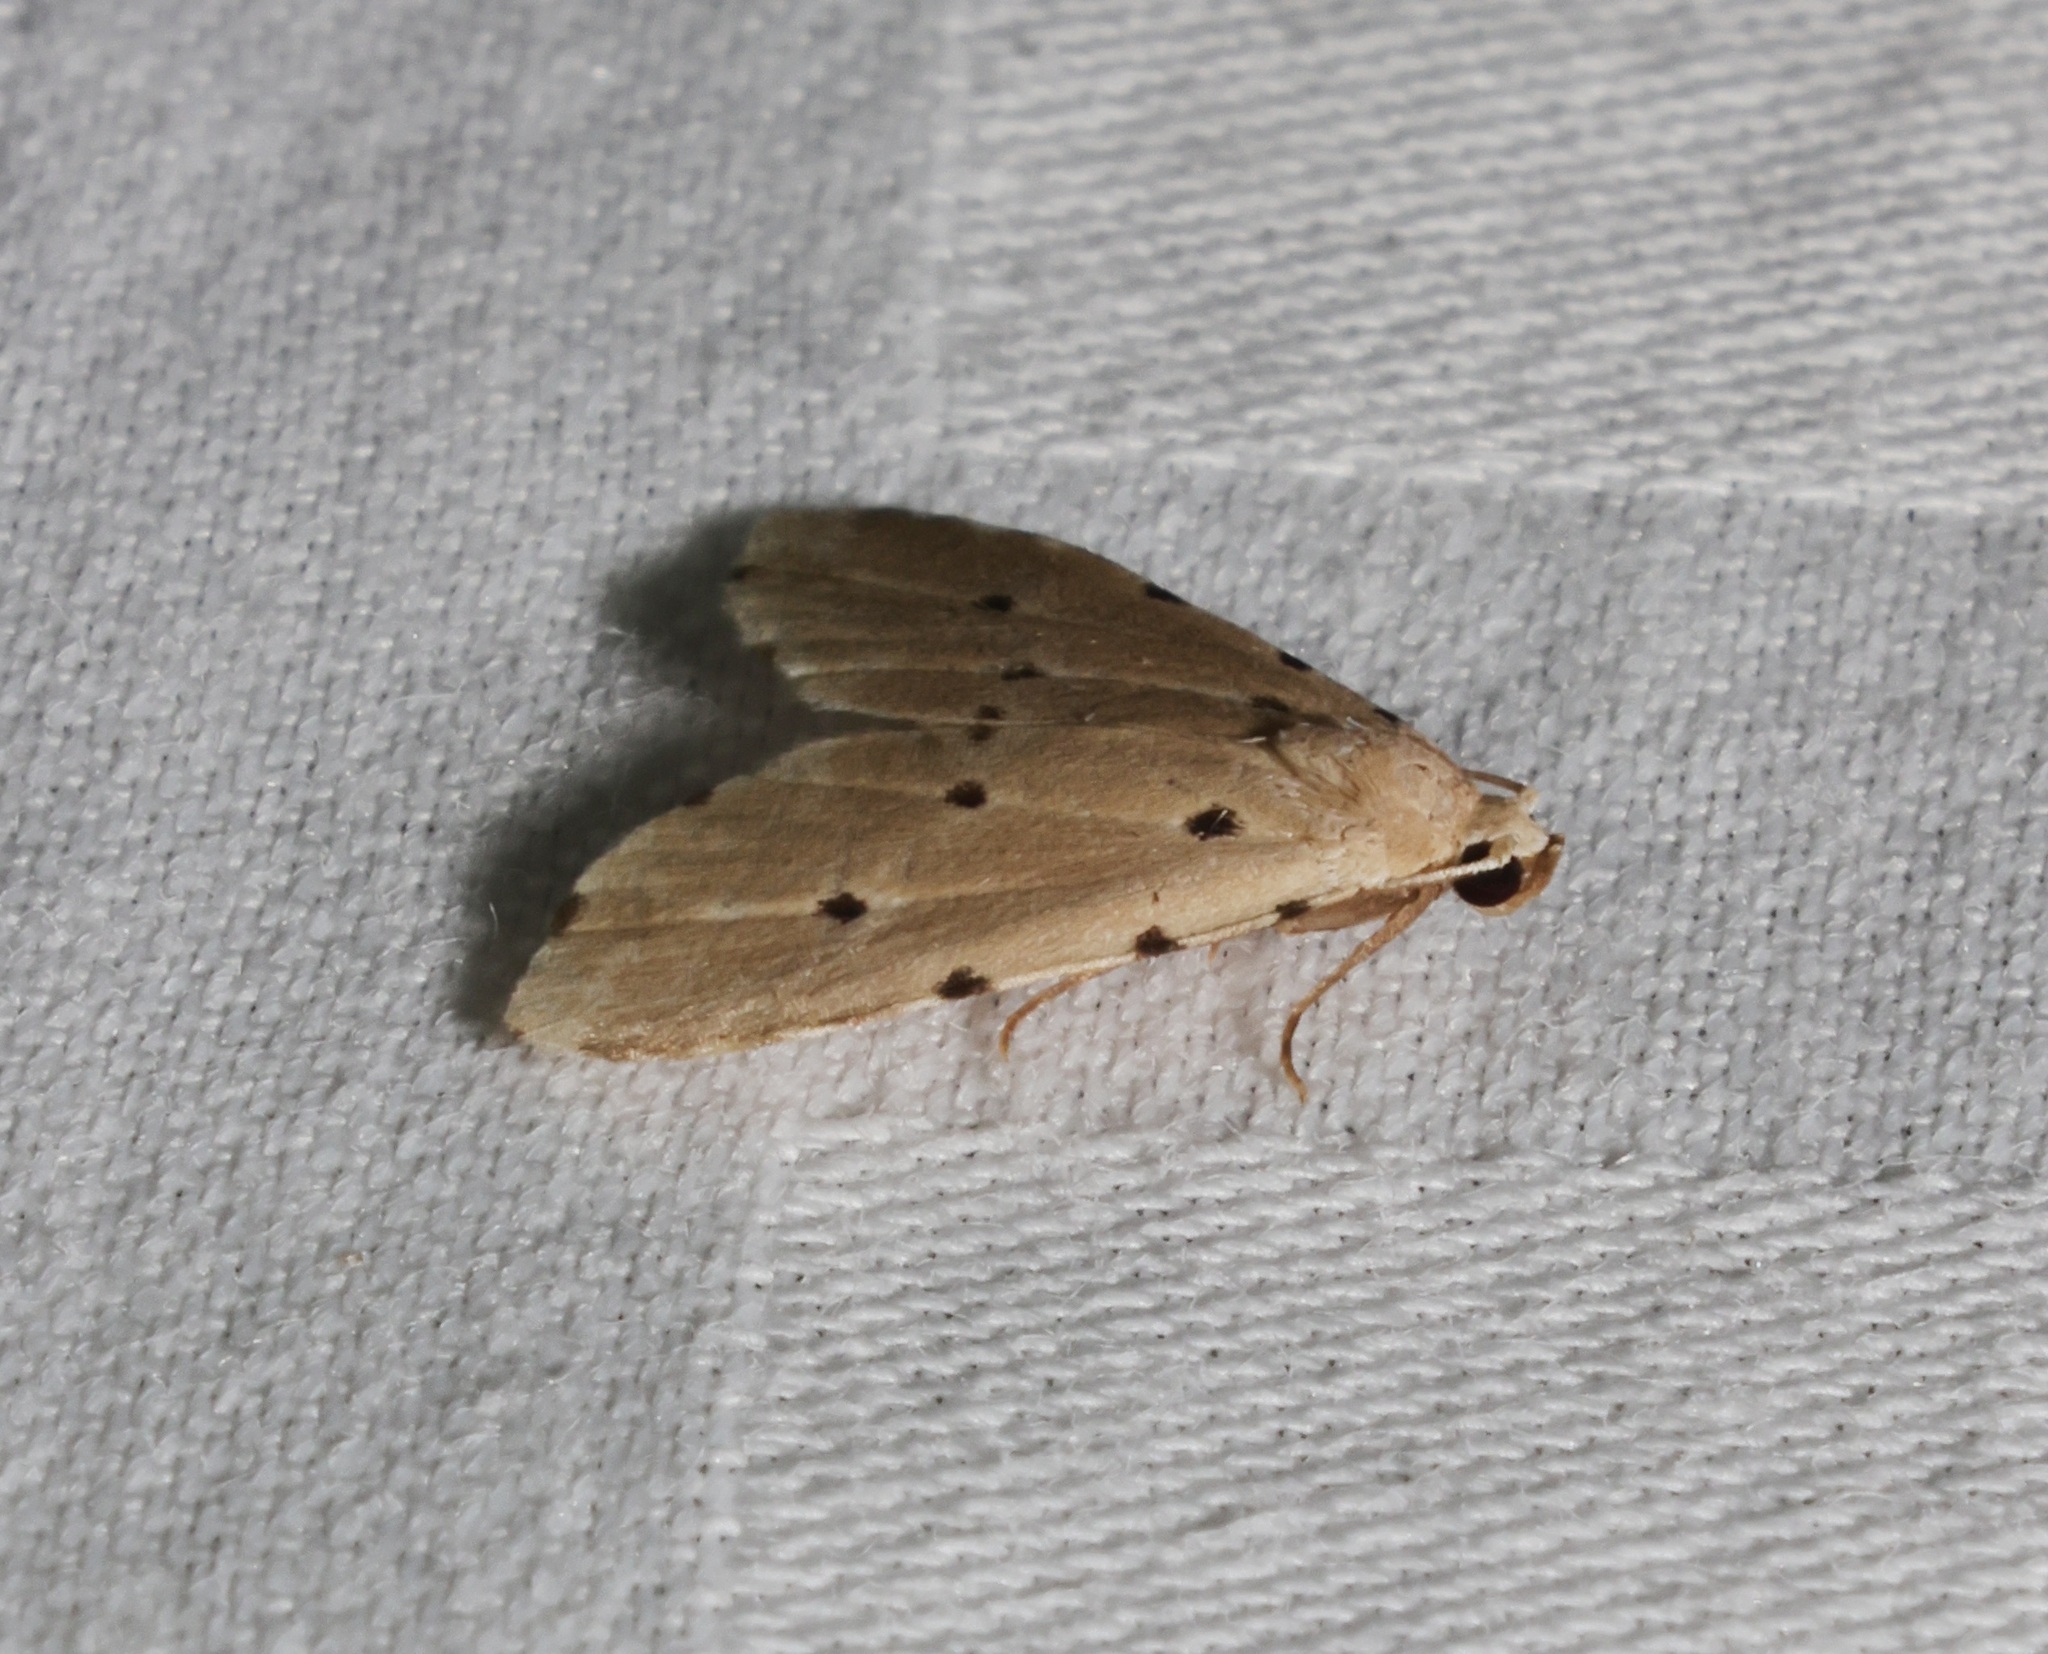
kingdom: Animalia
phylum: Arthropoda
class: Insecta
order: Lepidoptera
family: Noctuidae
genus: Metaemene
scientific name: Metaemene atrigutta
